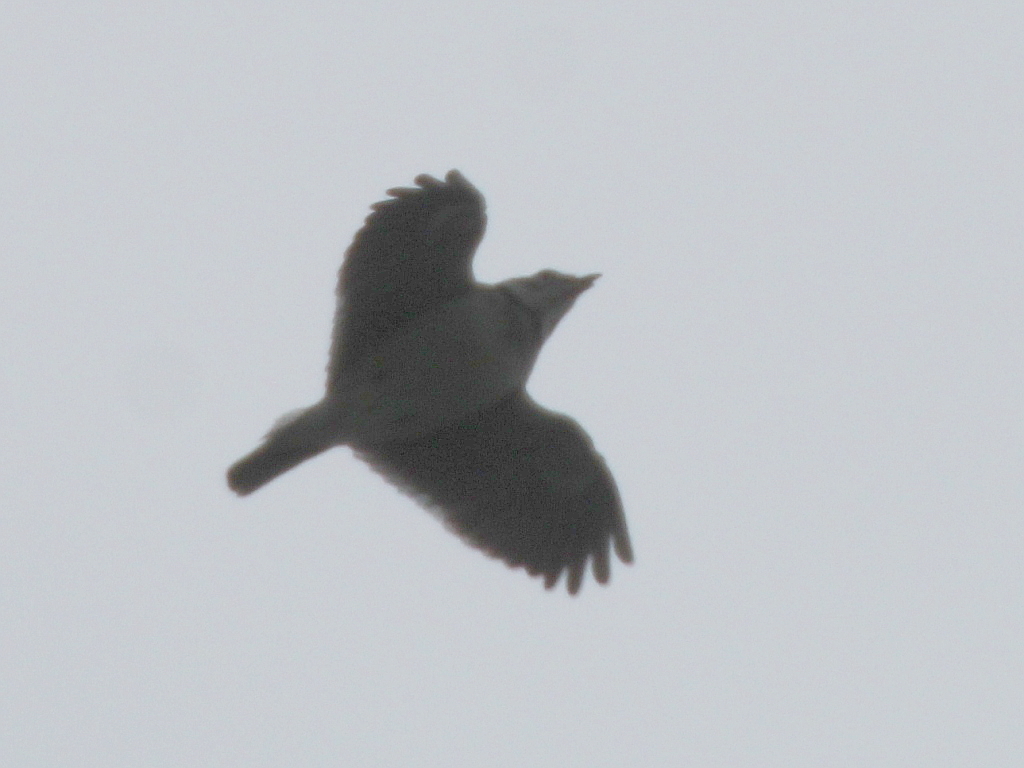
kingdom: Animalia
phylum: Chordata
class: Aves
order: Passeriformes
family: Alaudidae
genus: Melanocorypha
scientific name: Melanocorypha calandra
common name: Calandra lark
